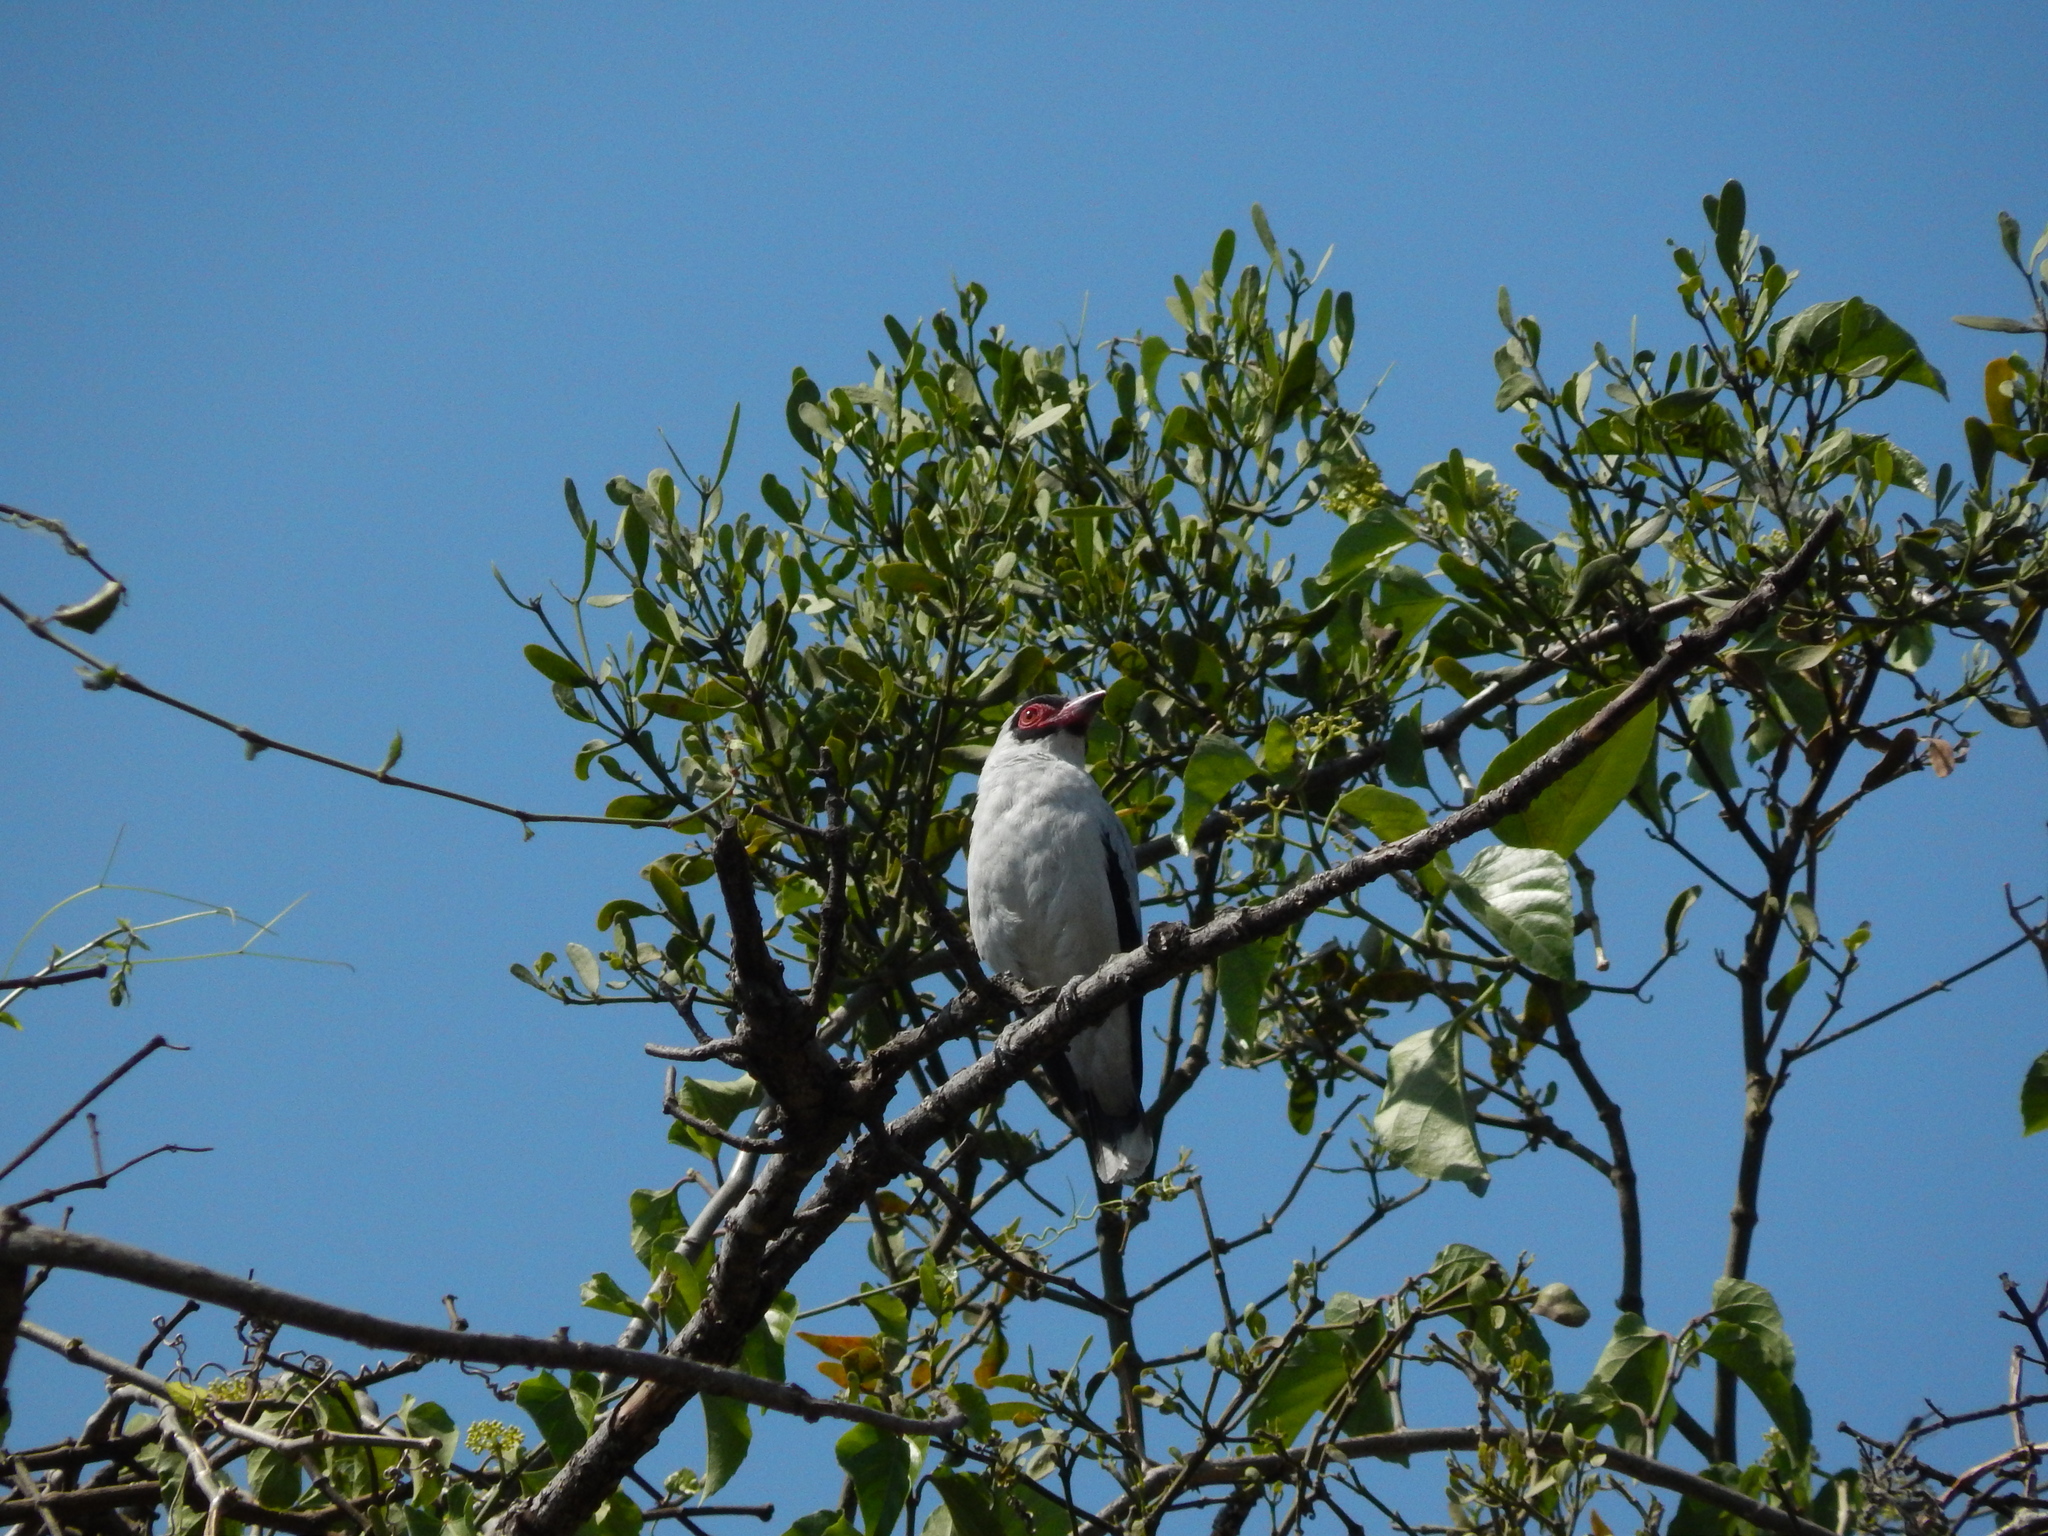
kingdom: Animalia
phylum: Chordata
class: Aves
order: Passeriformes
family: Cotingidae
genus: Tityra
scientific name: Tityra semifasciata
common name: Masked tityra
